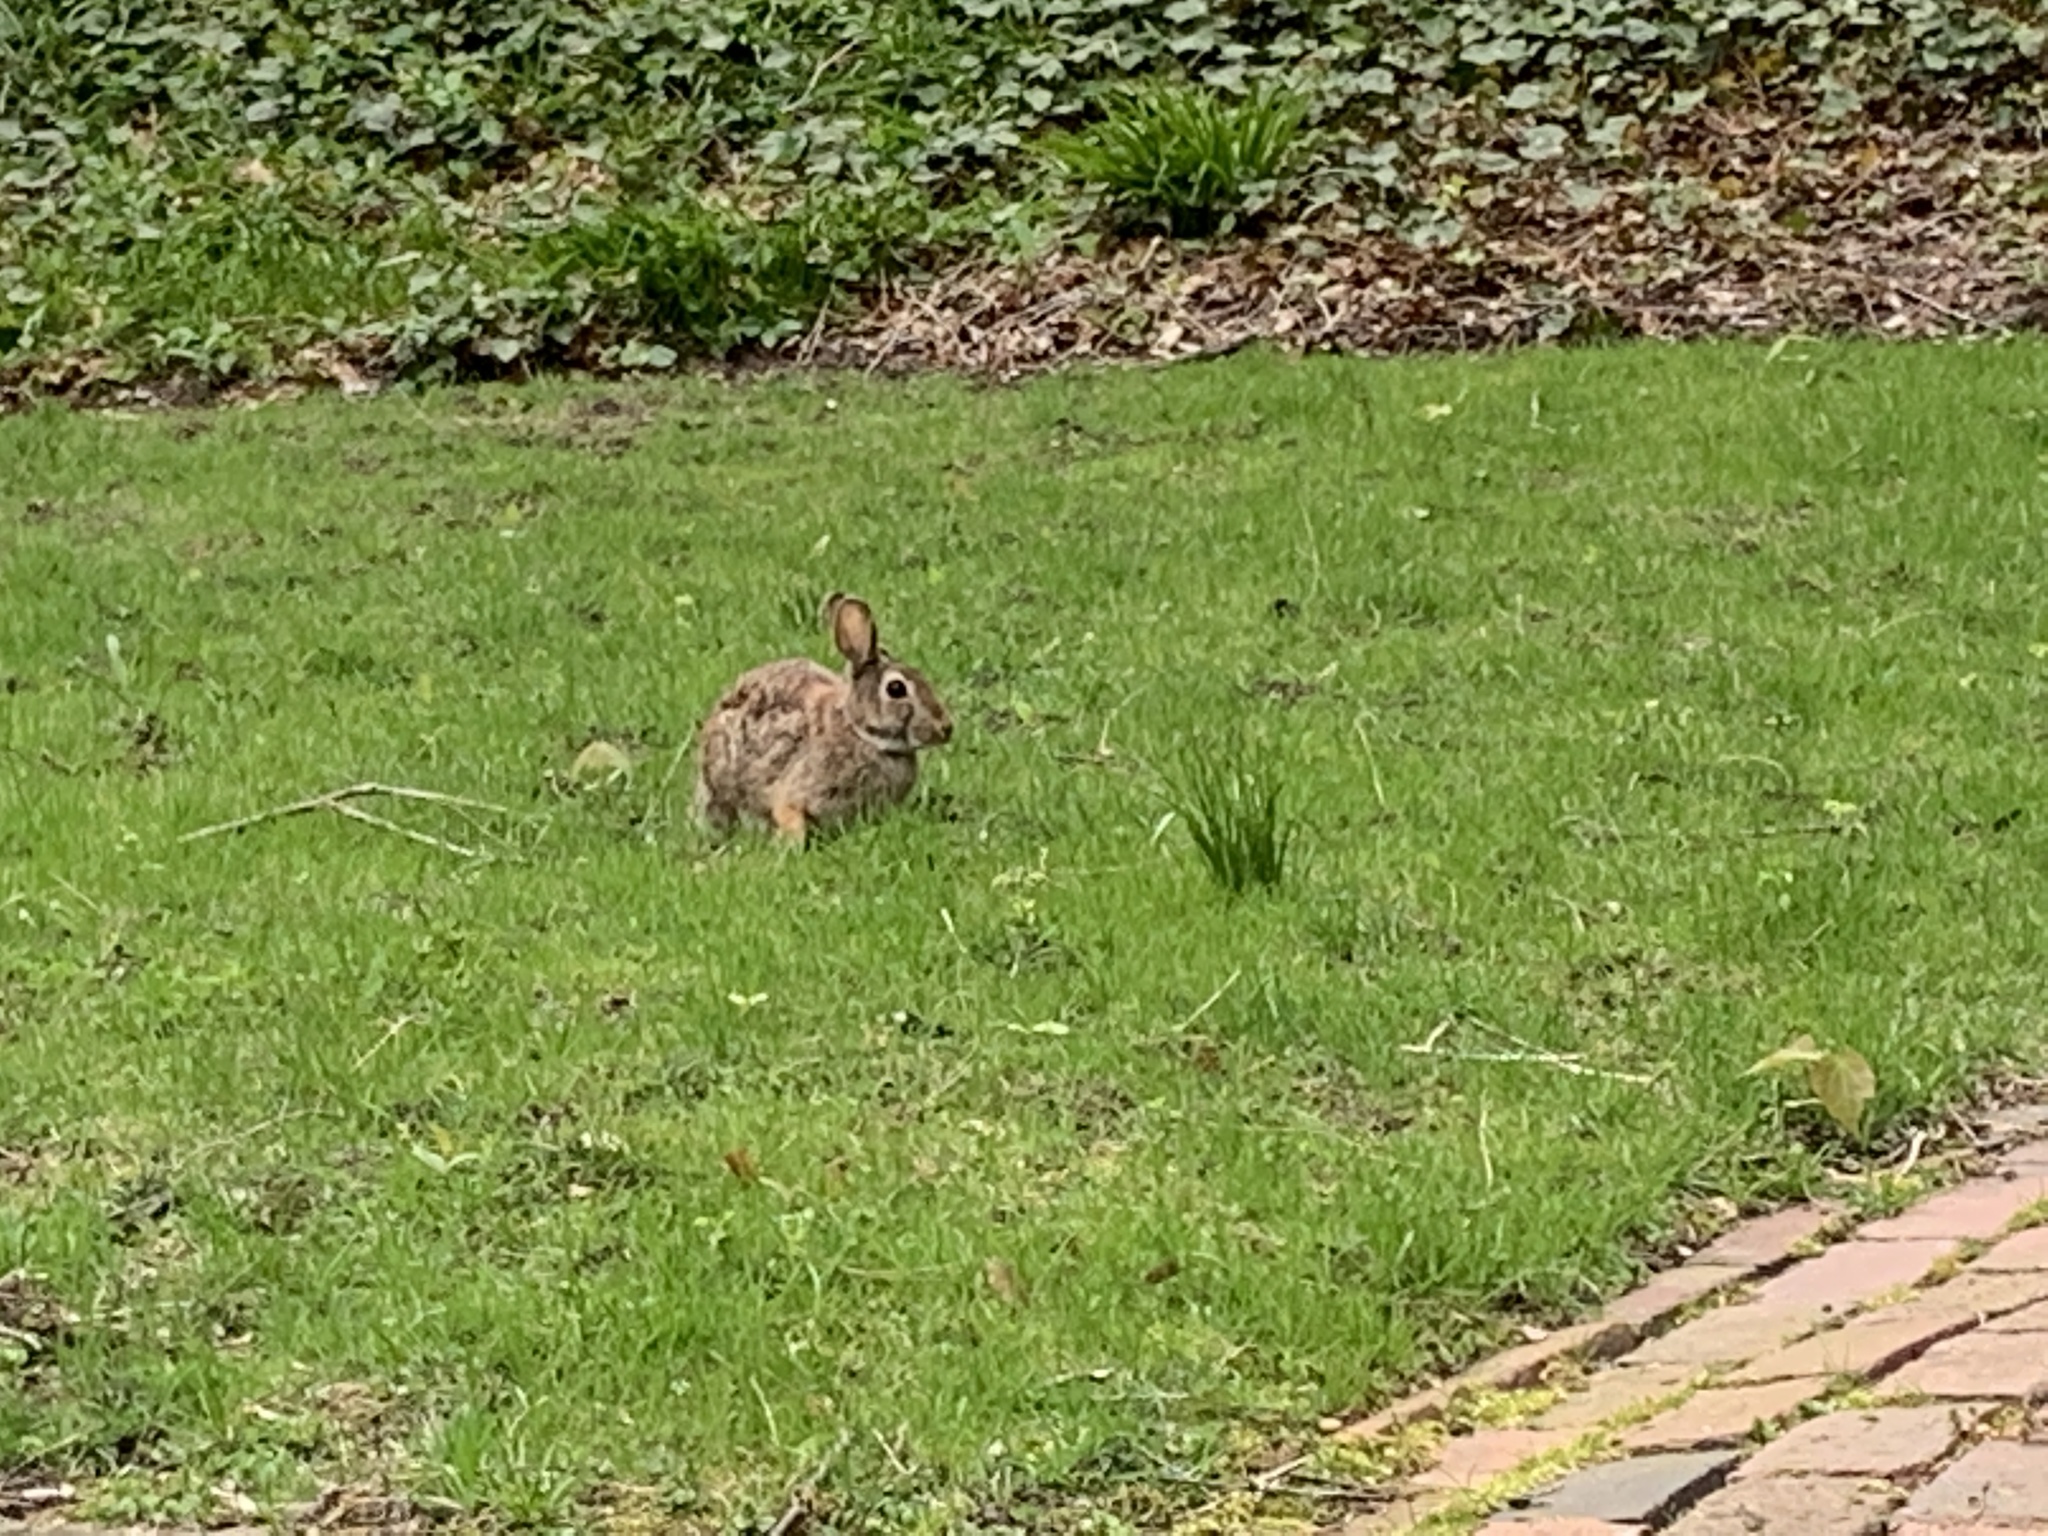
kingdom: Animalia
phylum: Chordata
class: Mammalia
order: Lagomorpha
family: Leporidae
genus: Sylvilagus
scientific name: Sylvilagus floridanus
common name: Eastern cottontail
